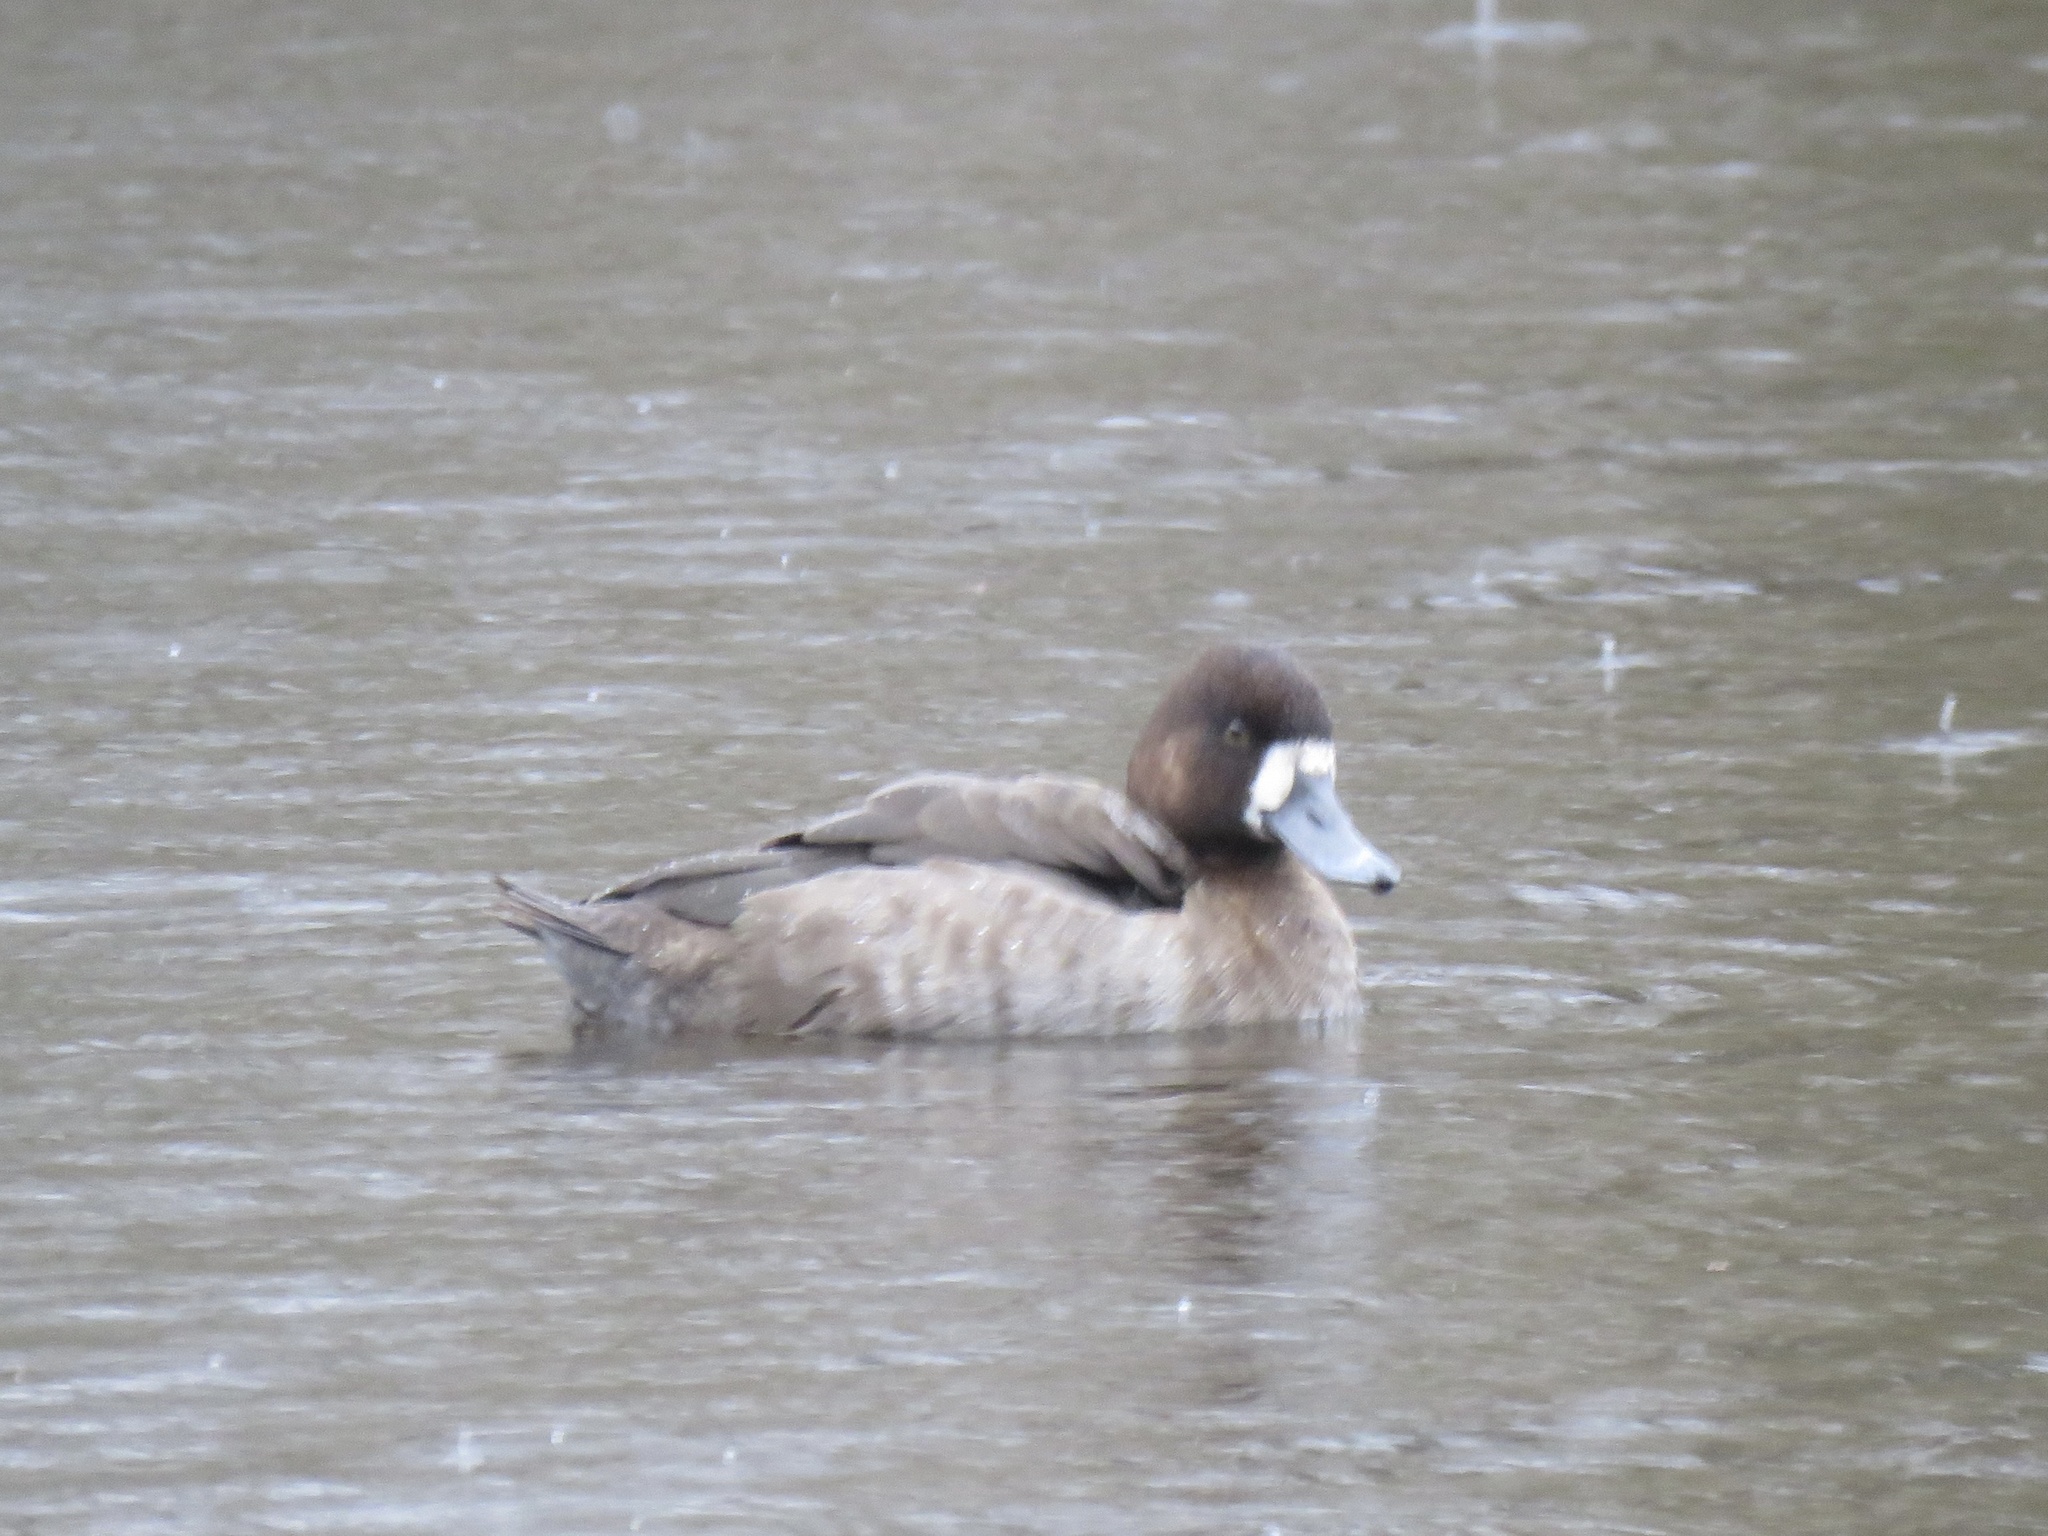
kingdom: Animalia
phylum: Chordata
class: Aves
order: Anseriformes
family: Anatidae
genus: Aythya
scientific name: Aythya affinis
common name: Lesser scaup
